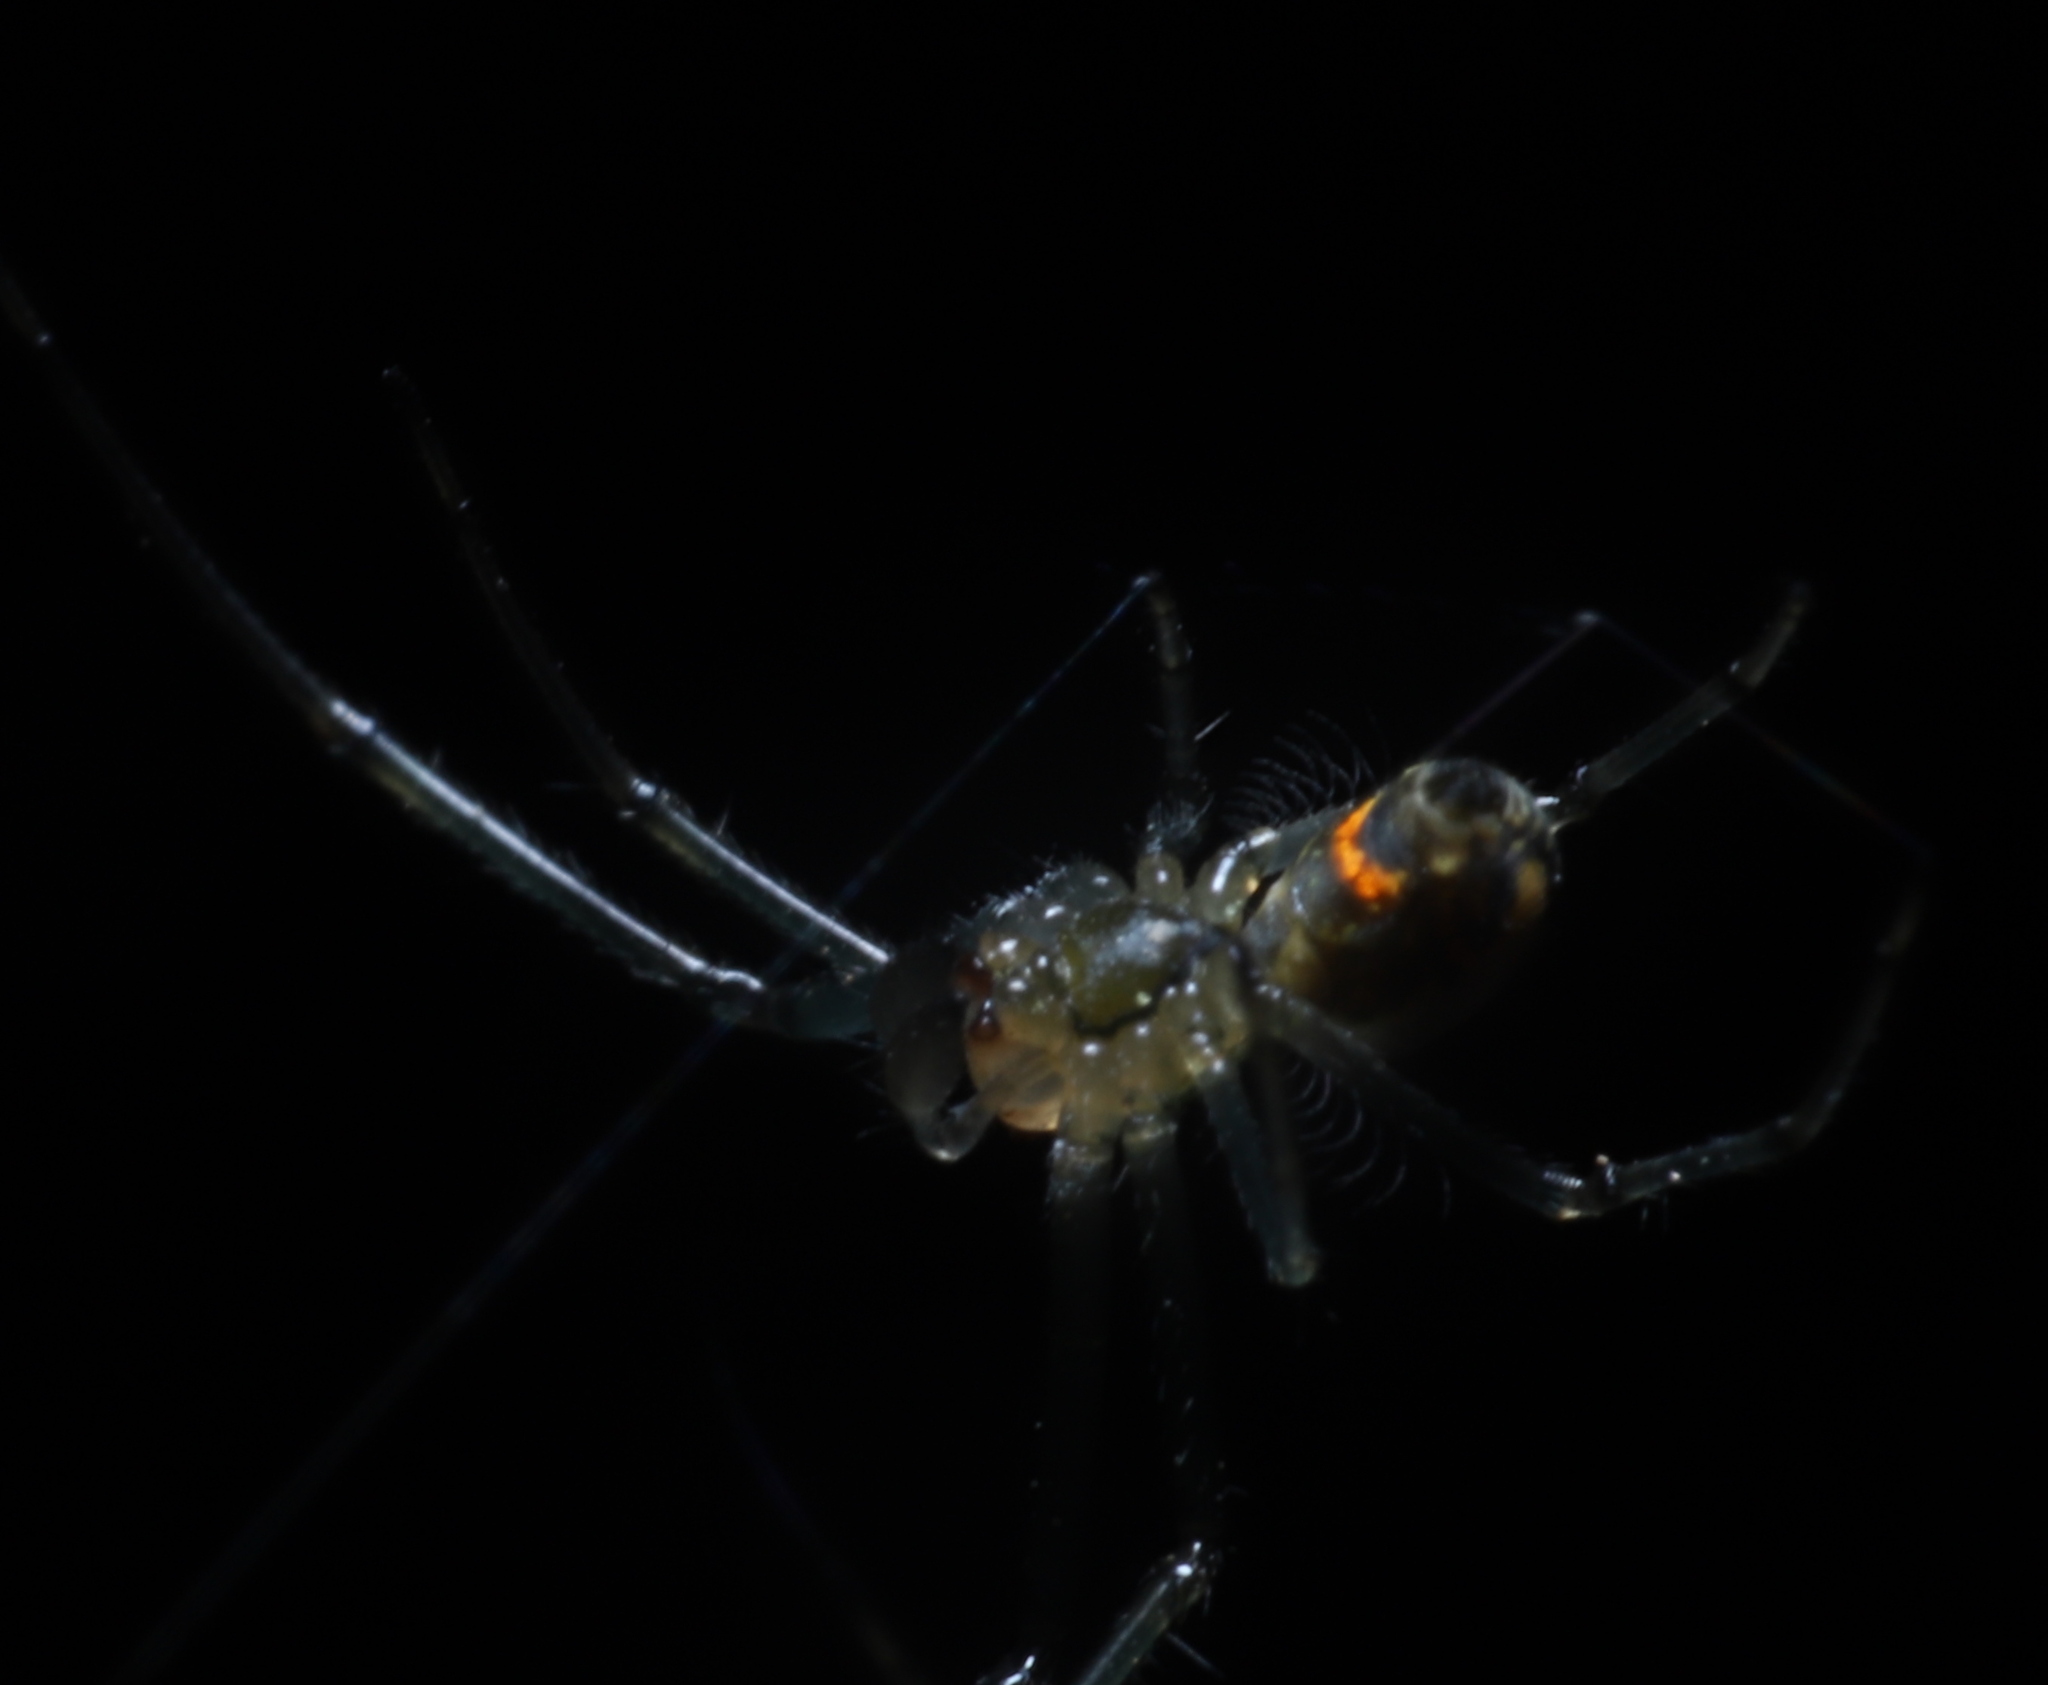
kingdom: Animalia
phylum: Arthropoda
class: Arachnida
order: Araneae
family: Tetragnathidae
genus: Leucauge
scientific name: Leucauge venusta
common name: Longjawed orb weavers
